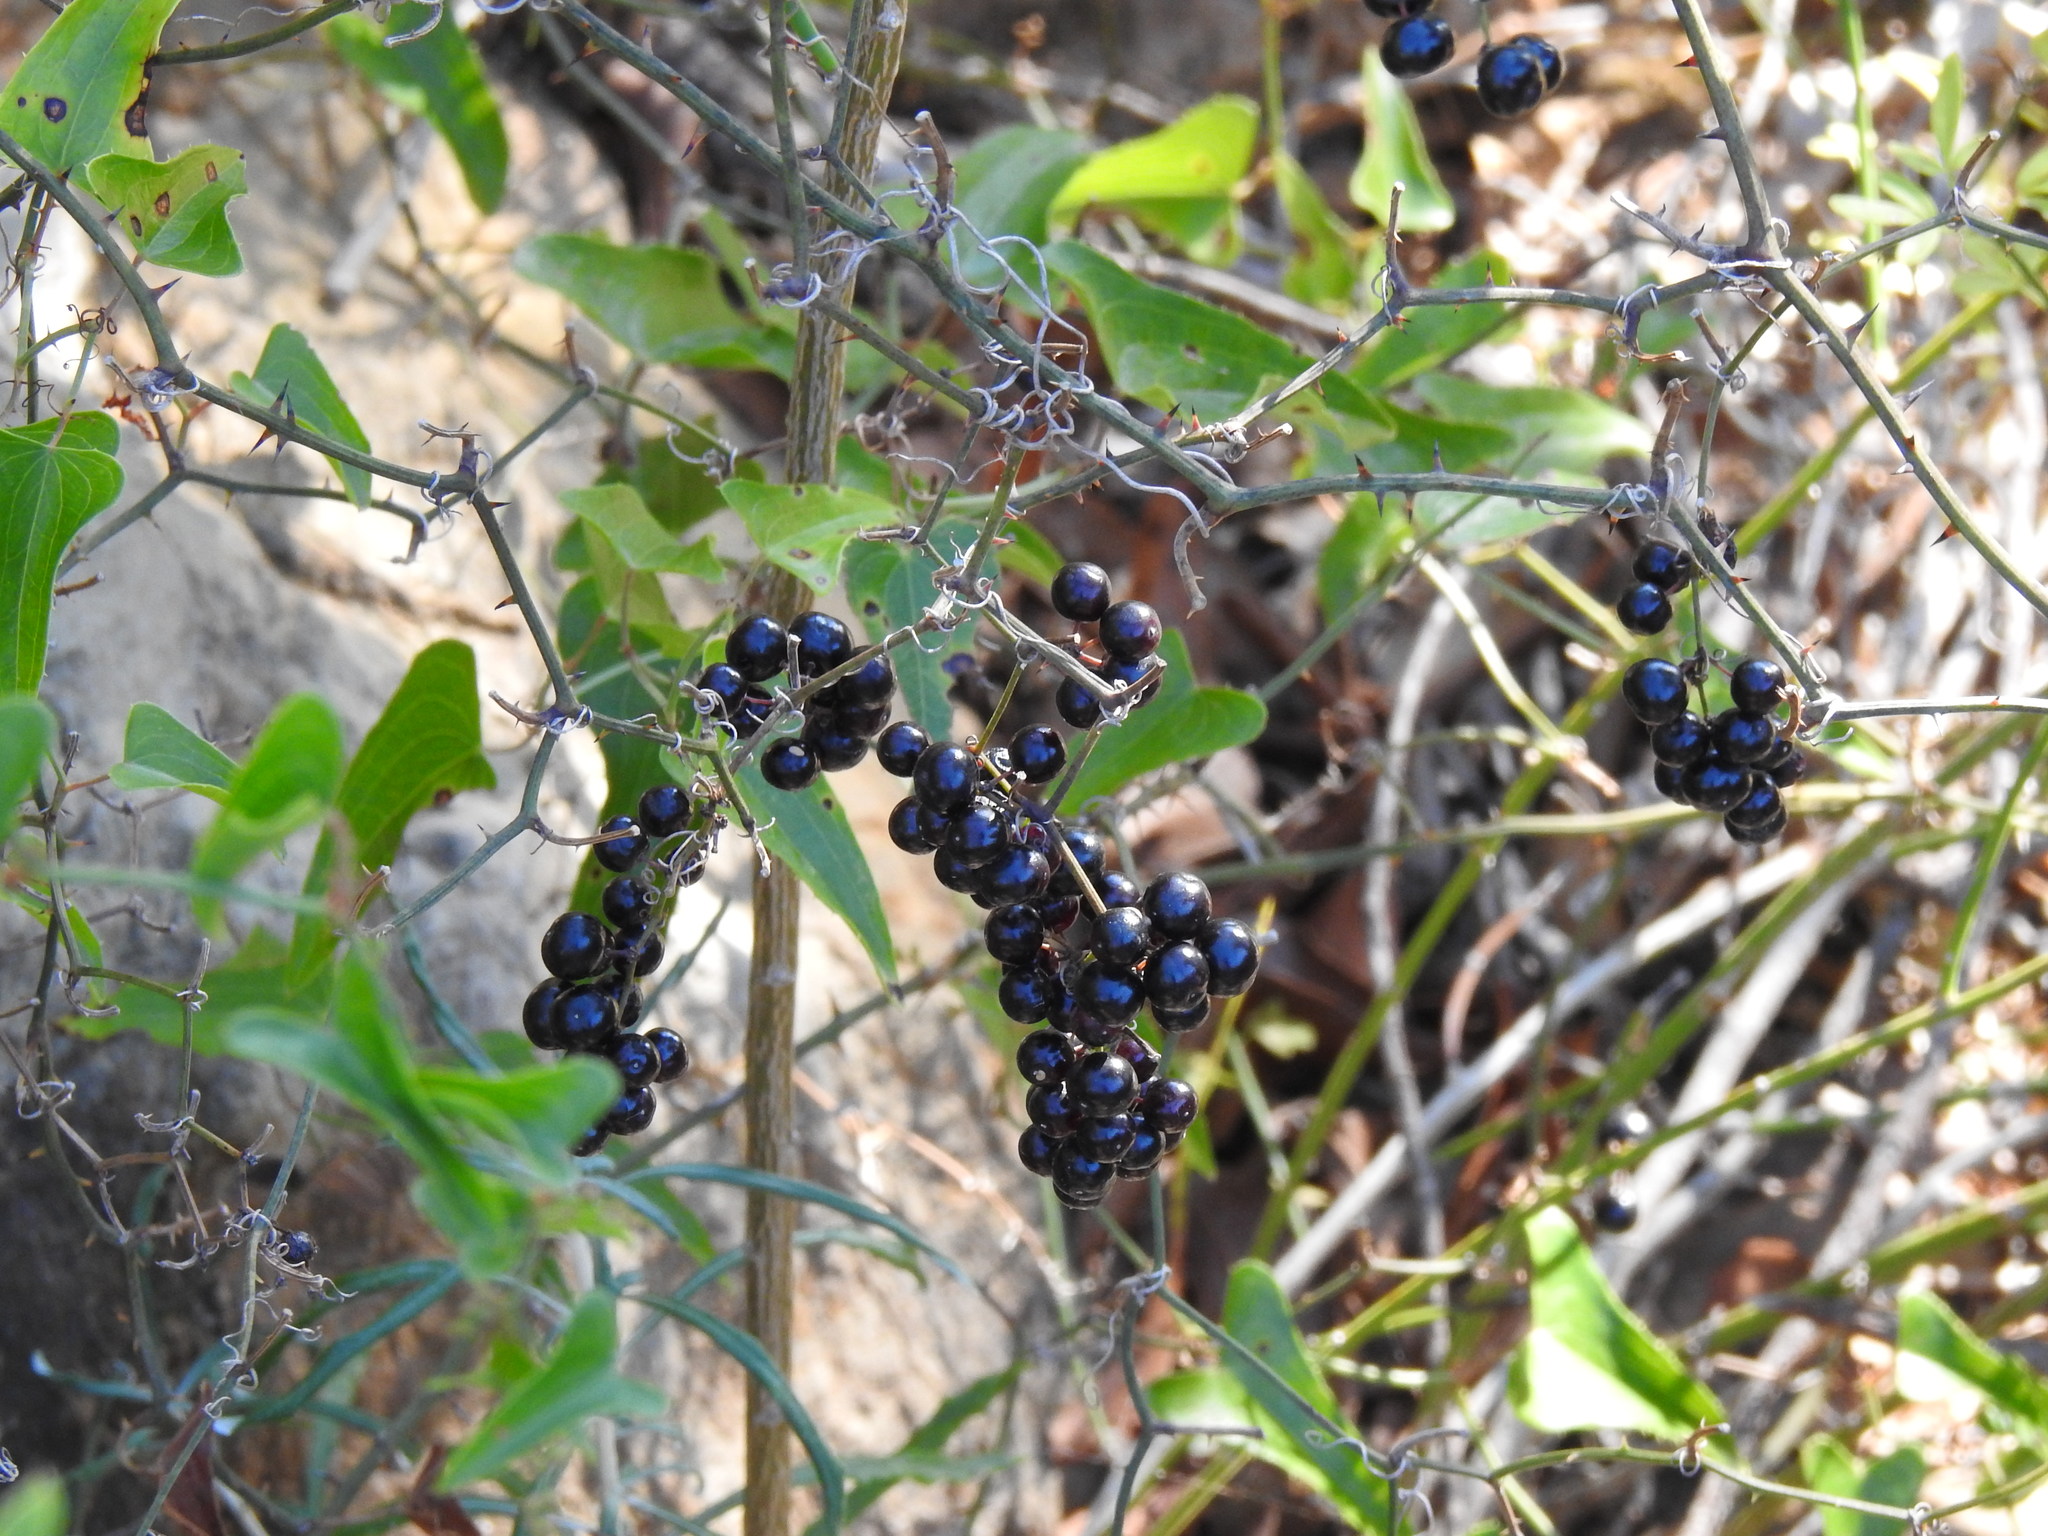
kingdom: Plantae
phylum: Tracheophyta
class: Liliopsida
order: Liliales
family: Smilacaceae
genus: Smilax
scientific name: Smilax aspera
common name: Common smilax
